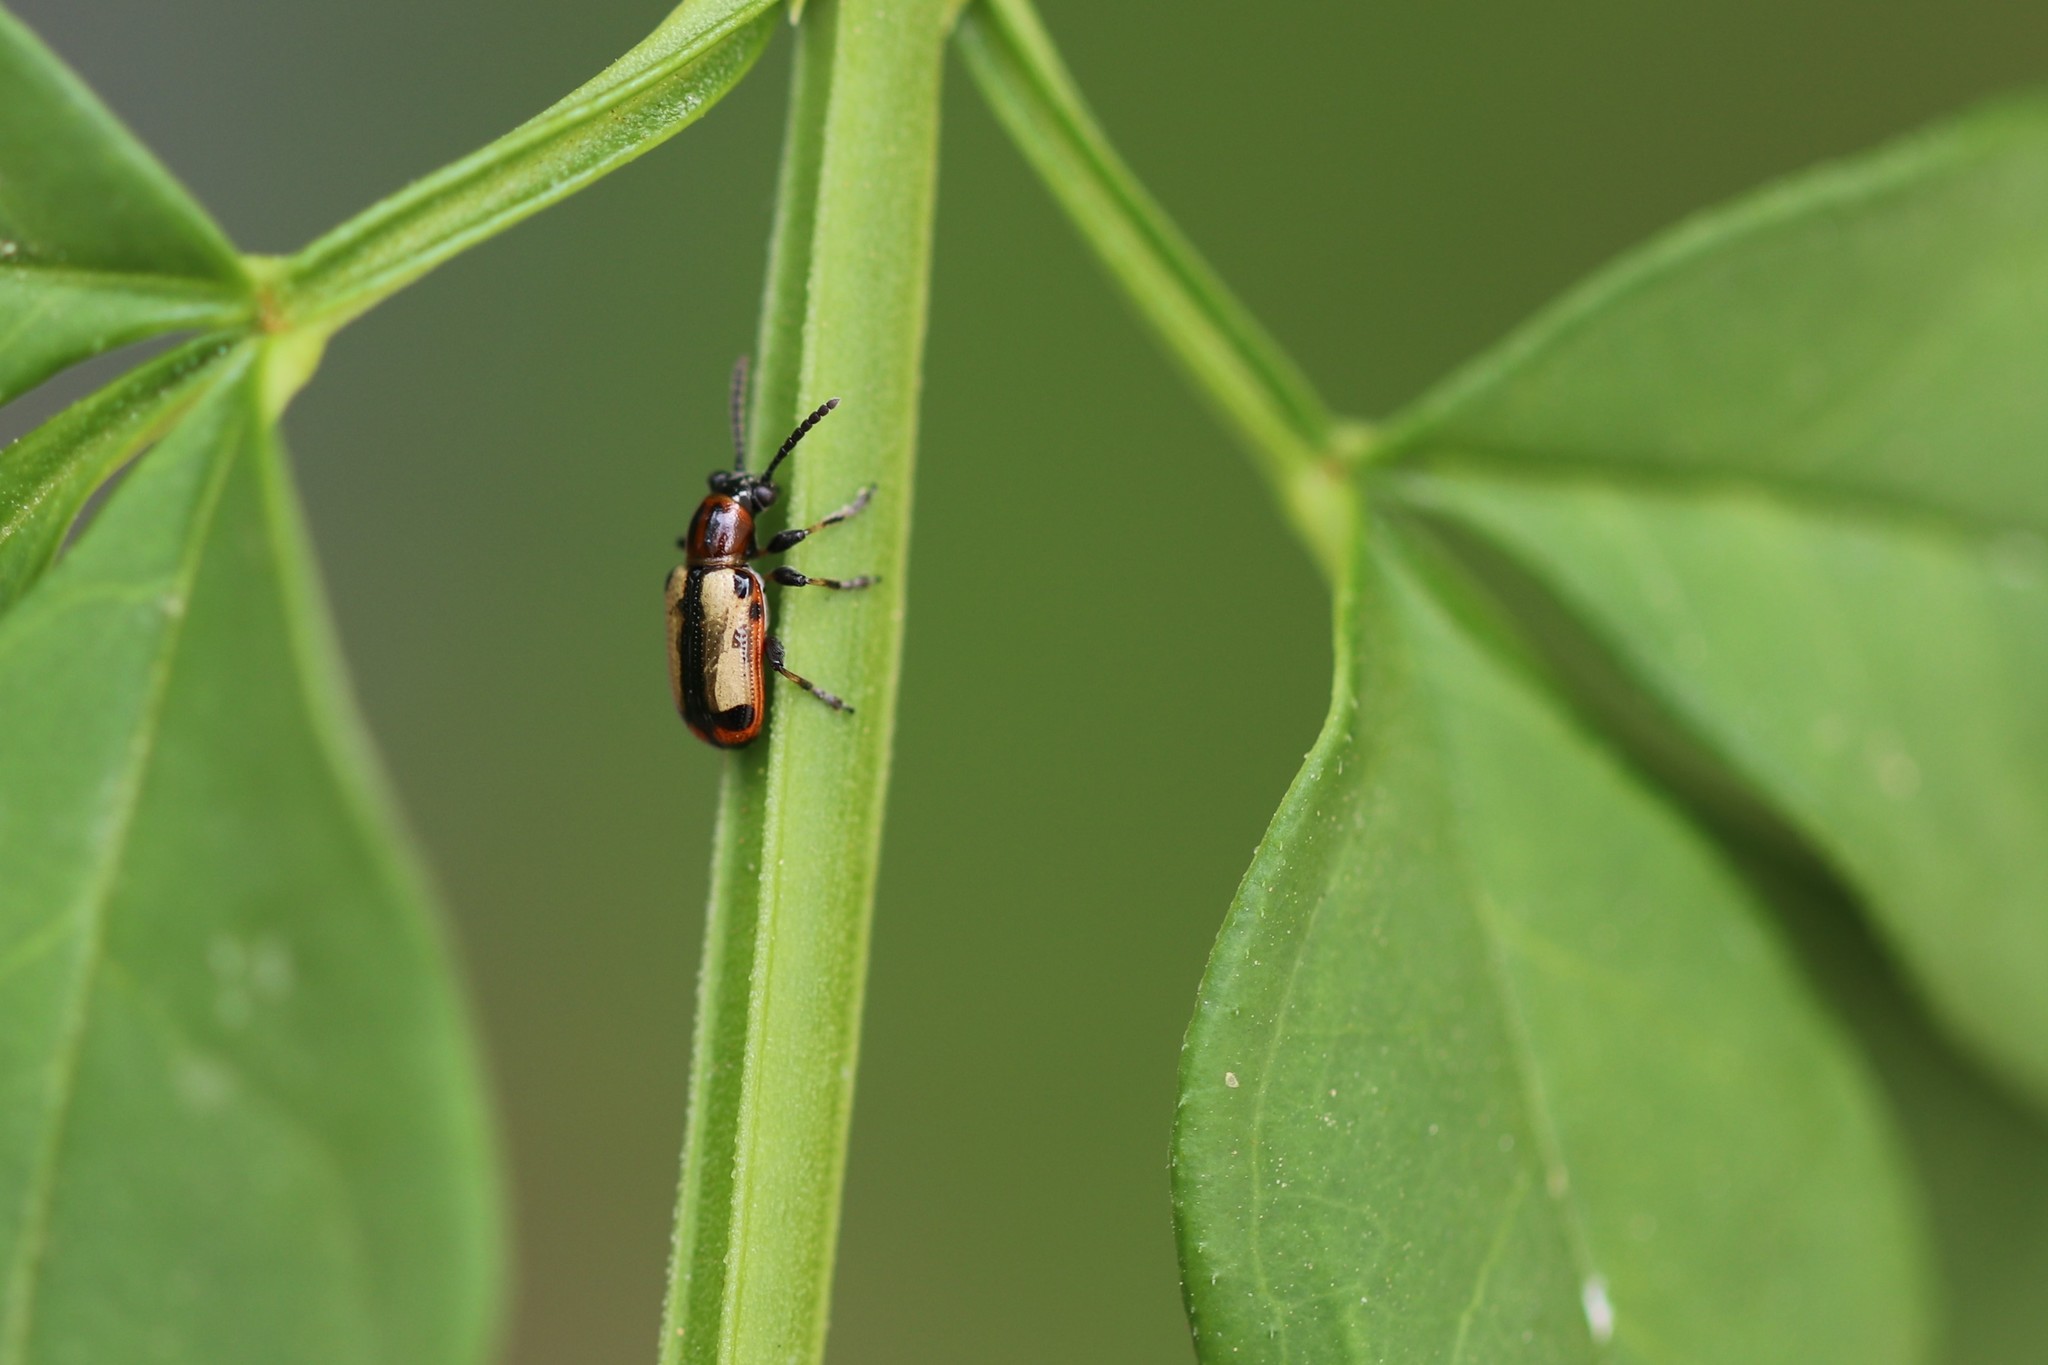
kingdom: Animalia
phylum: Arthropoda
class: Insecta
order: Coleoptera
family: Chrysomelidae
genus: Crioceris
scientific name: Crioceris paracenthesis
